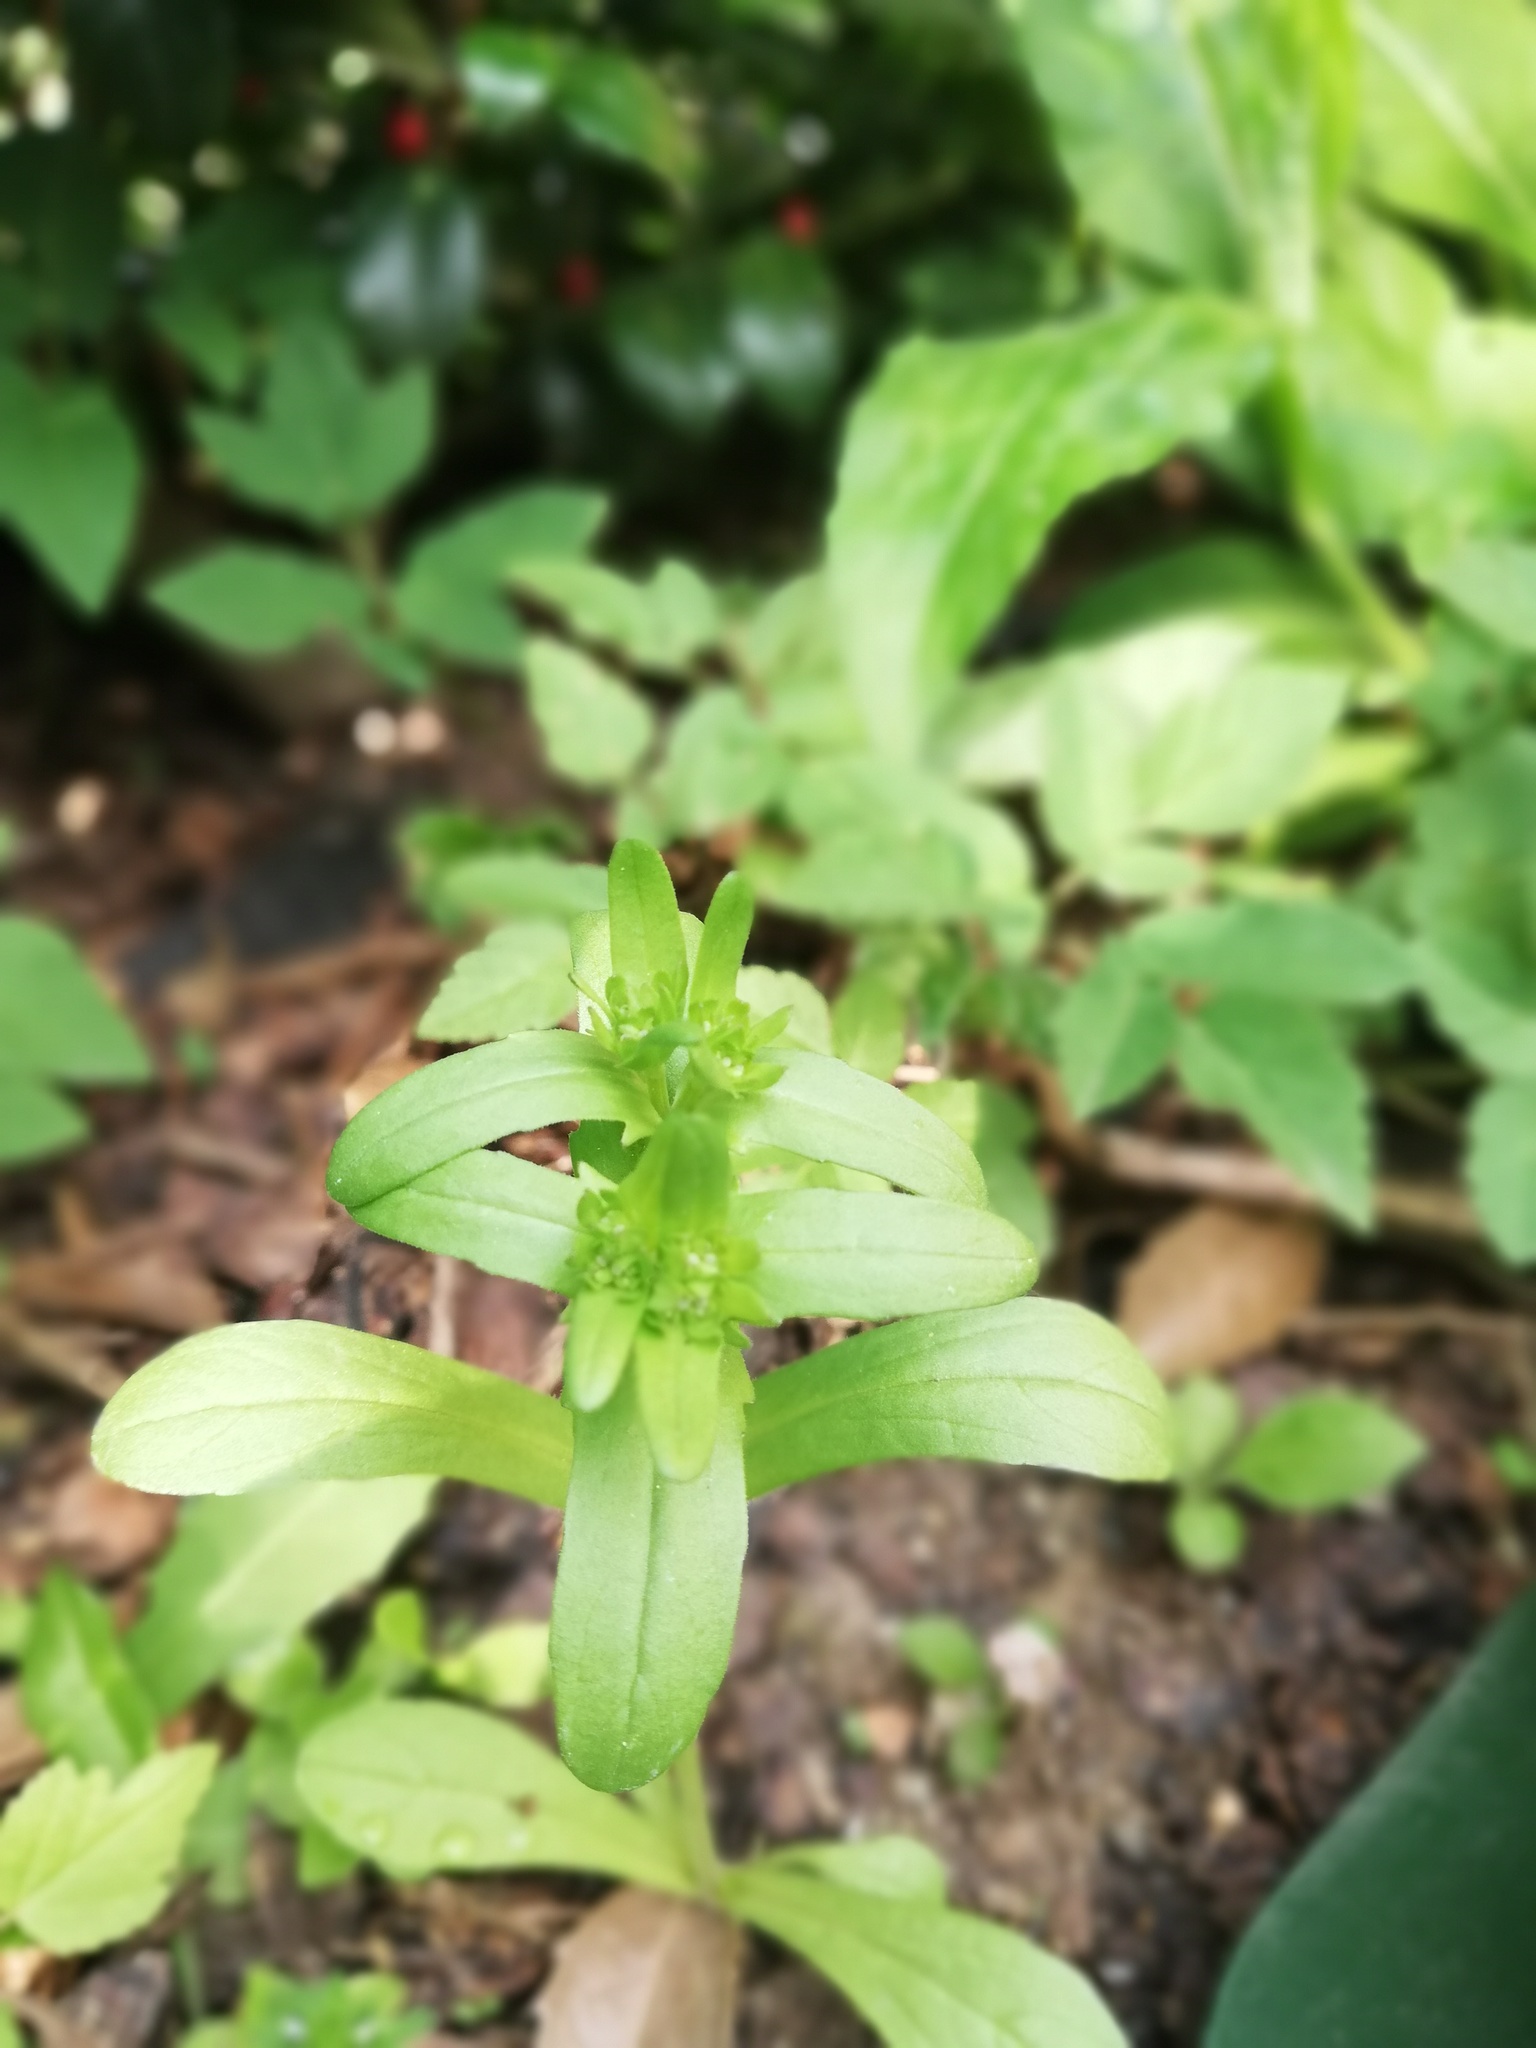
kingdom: Plantae
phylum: Tracheophyta
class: Magnoliopsida
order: Dipsacales
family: Caprifoliaceae
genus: Valerianella
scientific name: Valerianella locusta
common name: Common cornsalad
